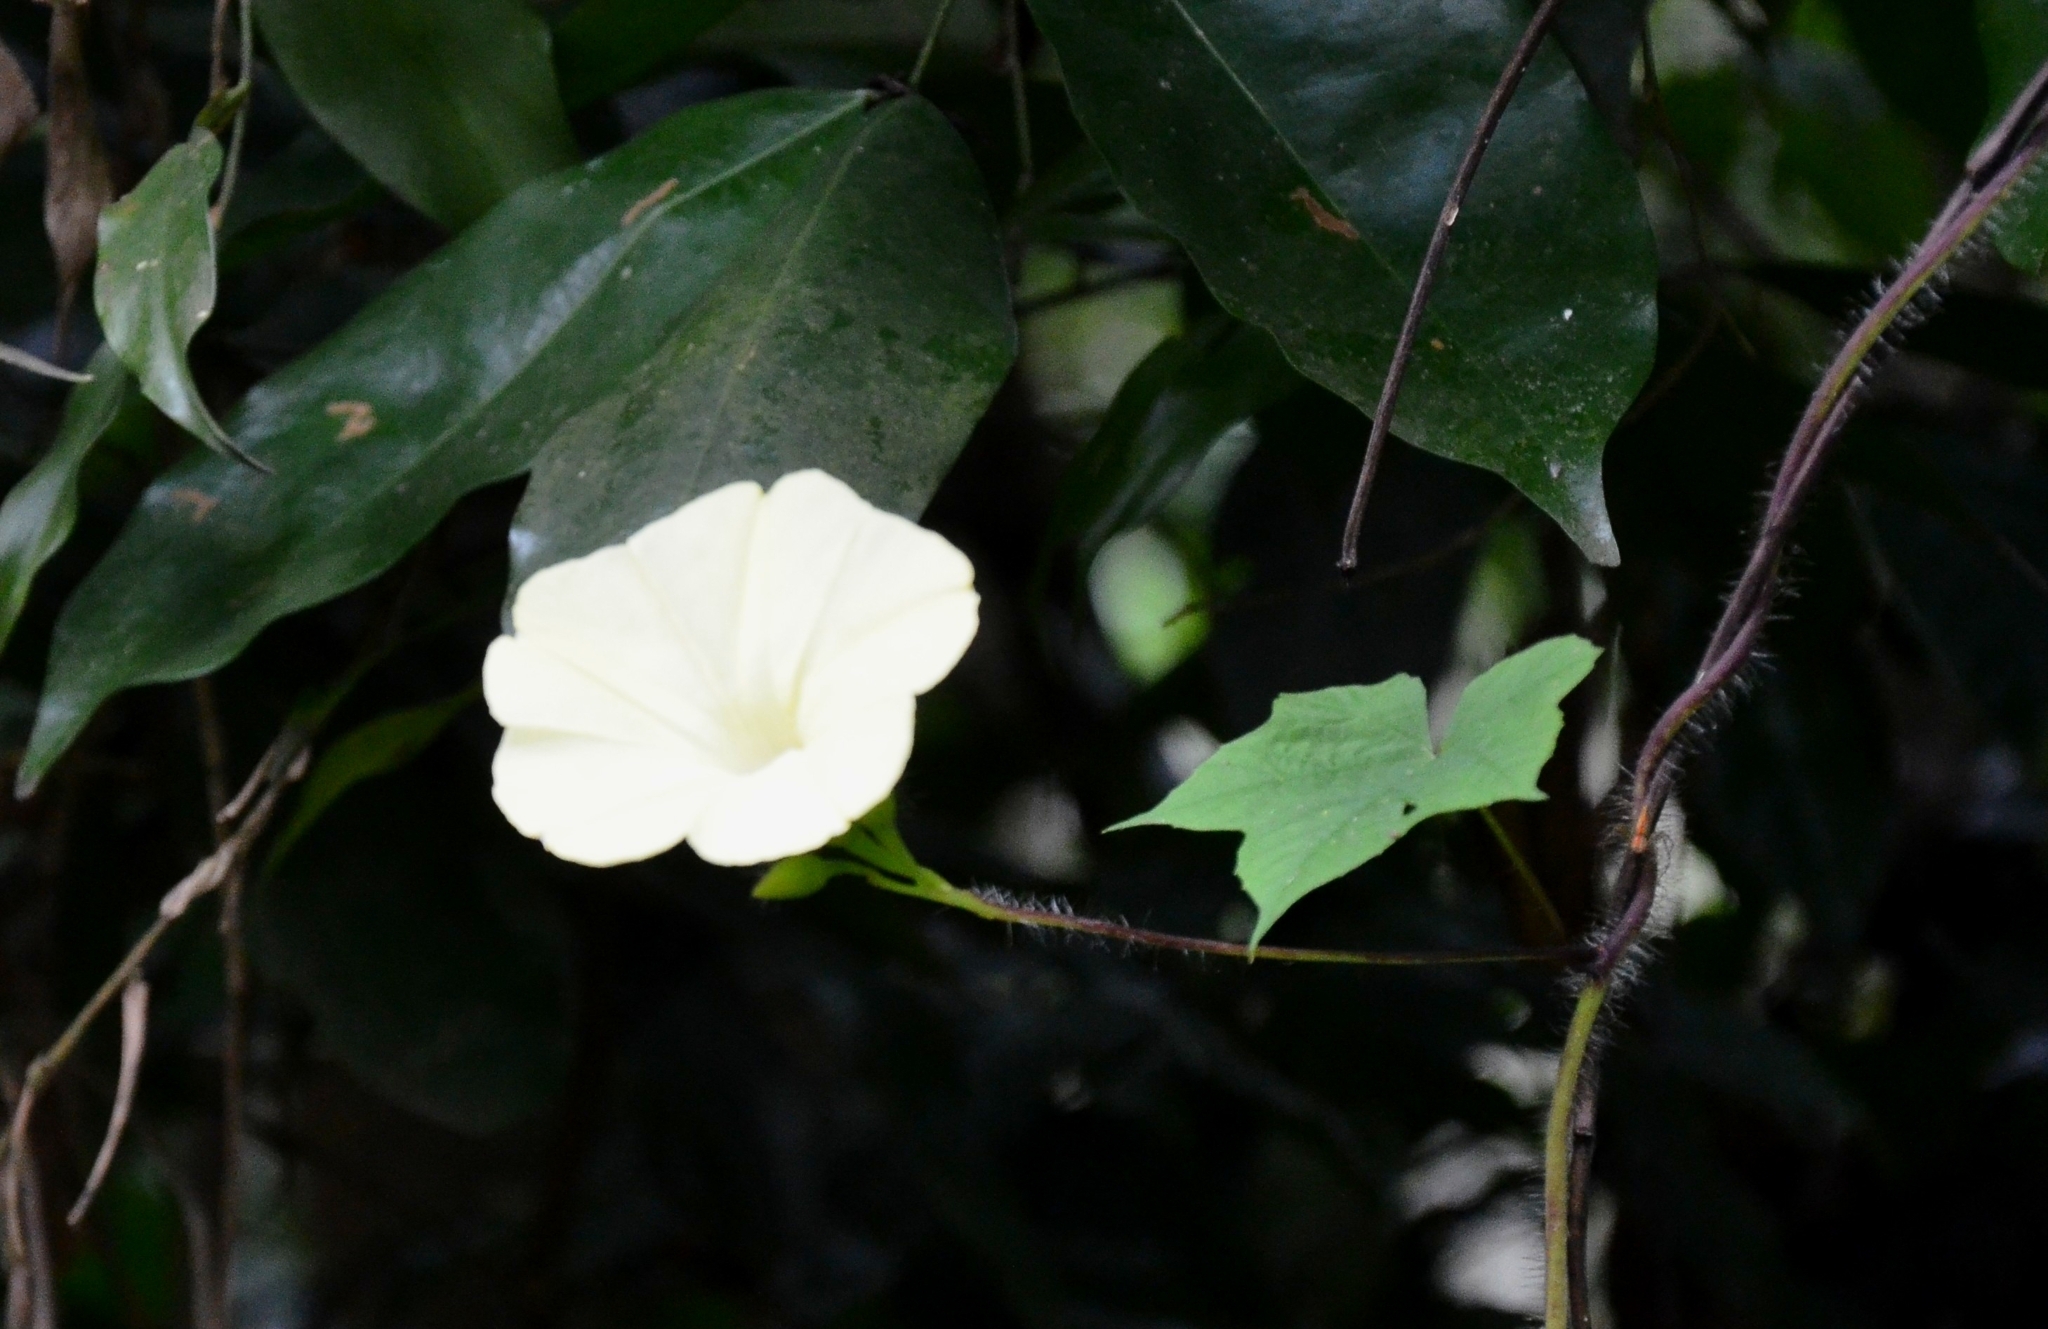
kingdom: Plantae
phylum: Tracheophyta
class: Magnoliopsida
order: Solanales
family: Convolvulaceae
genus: Distimake
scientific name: Distimake
